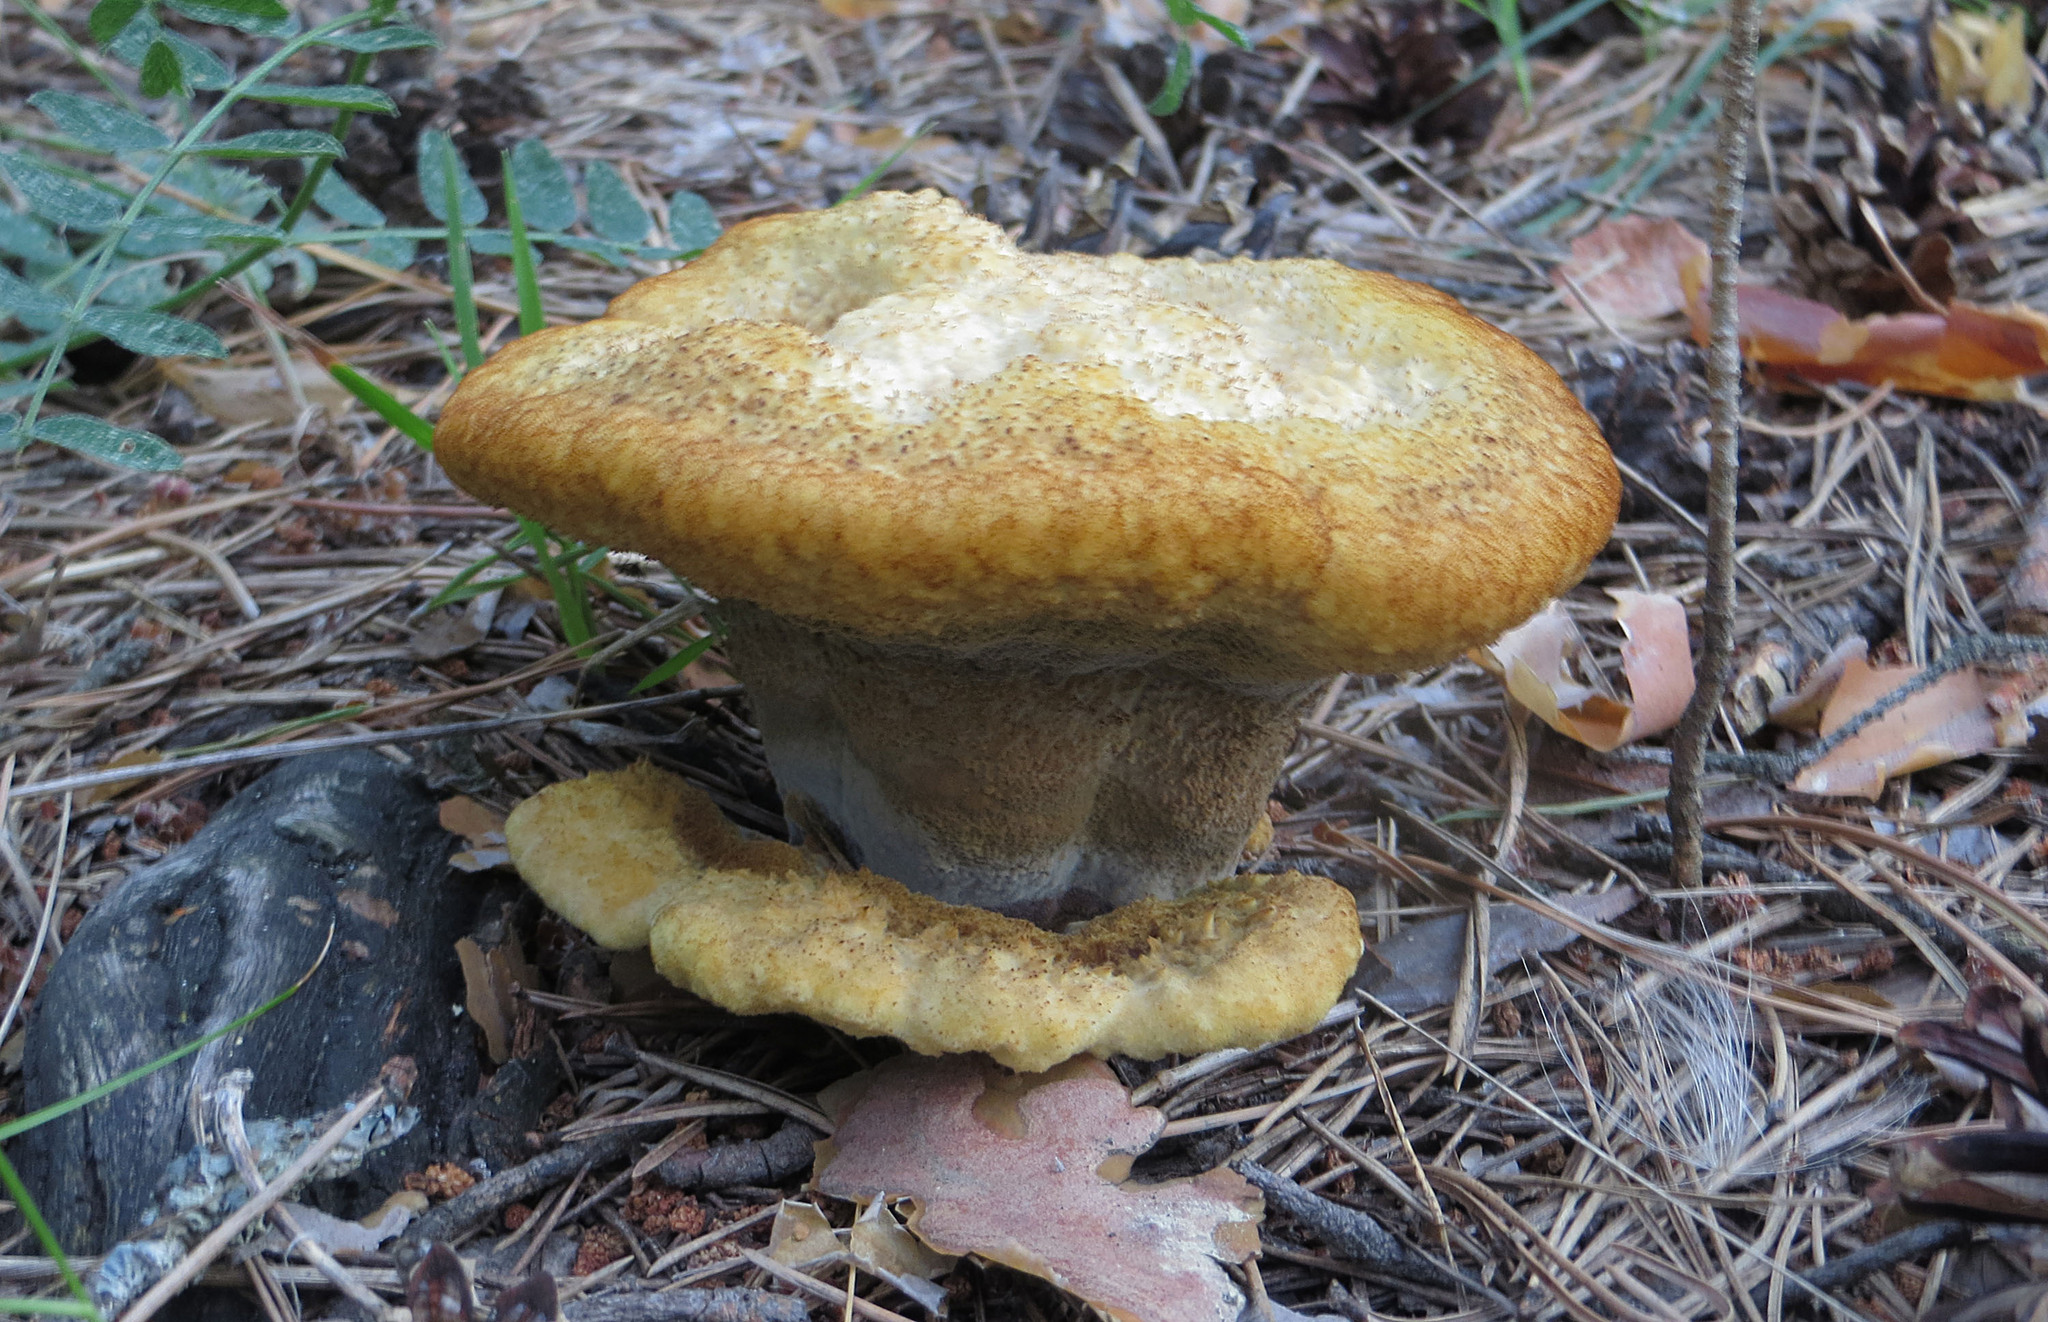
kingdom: Fungi
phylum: Basidiomycota
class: Agaricomycetes
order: Polyporales
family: Laetiporaceae
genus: Phaeolus
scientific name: Phaeolus schweinitzii
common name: Dyer's mazegill
